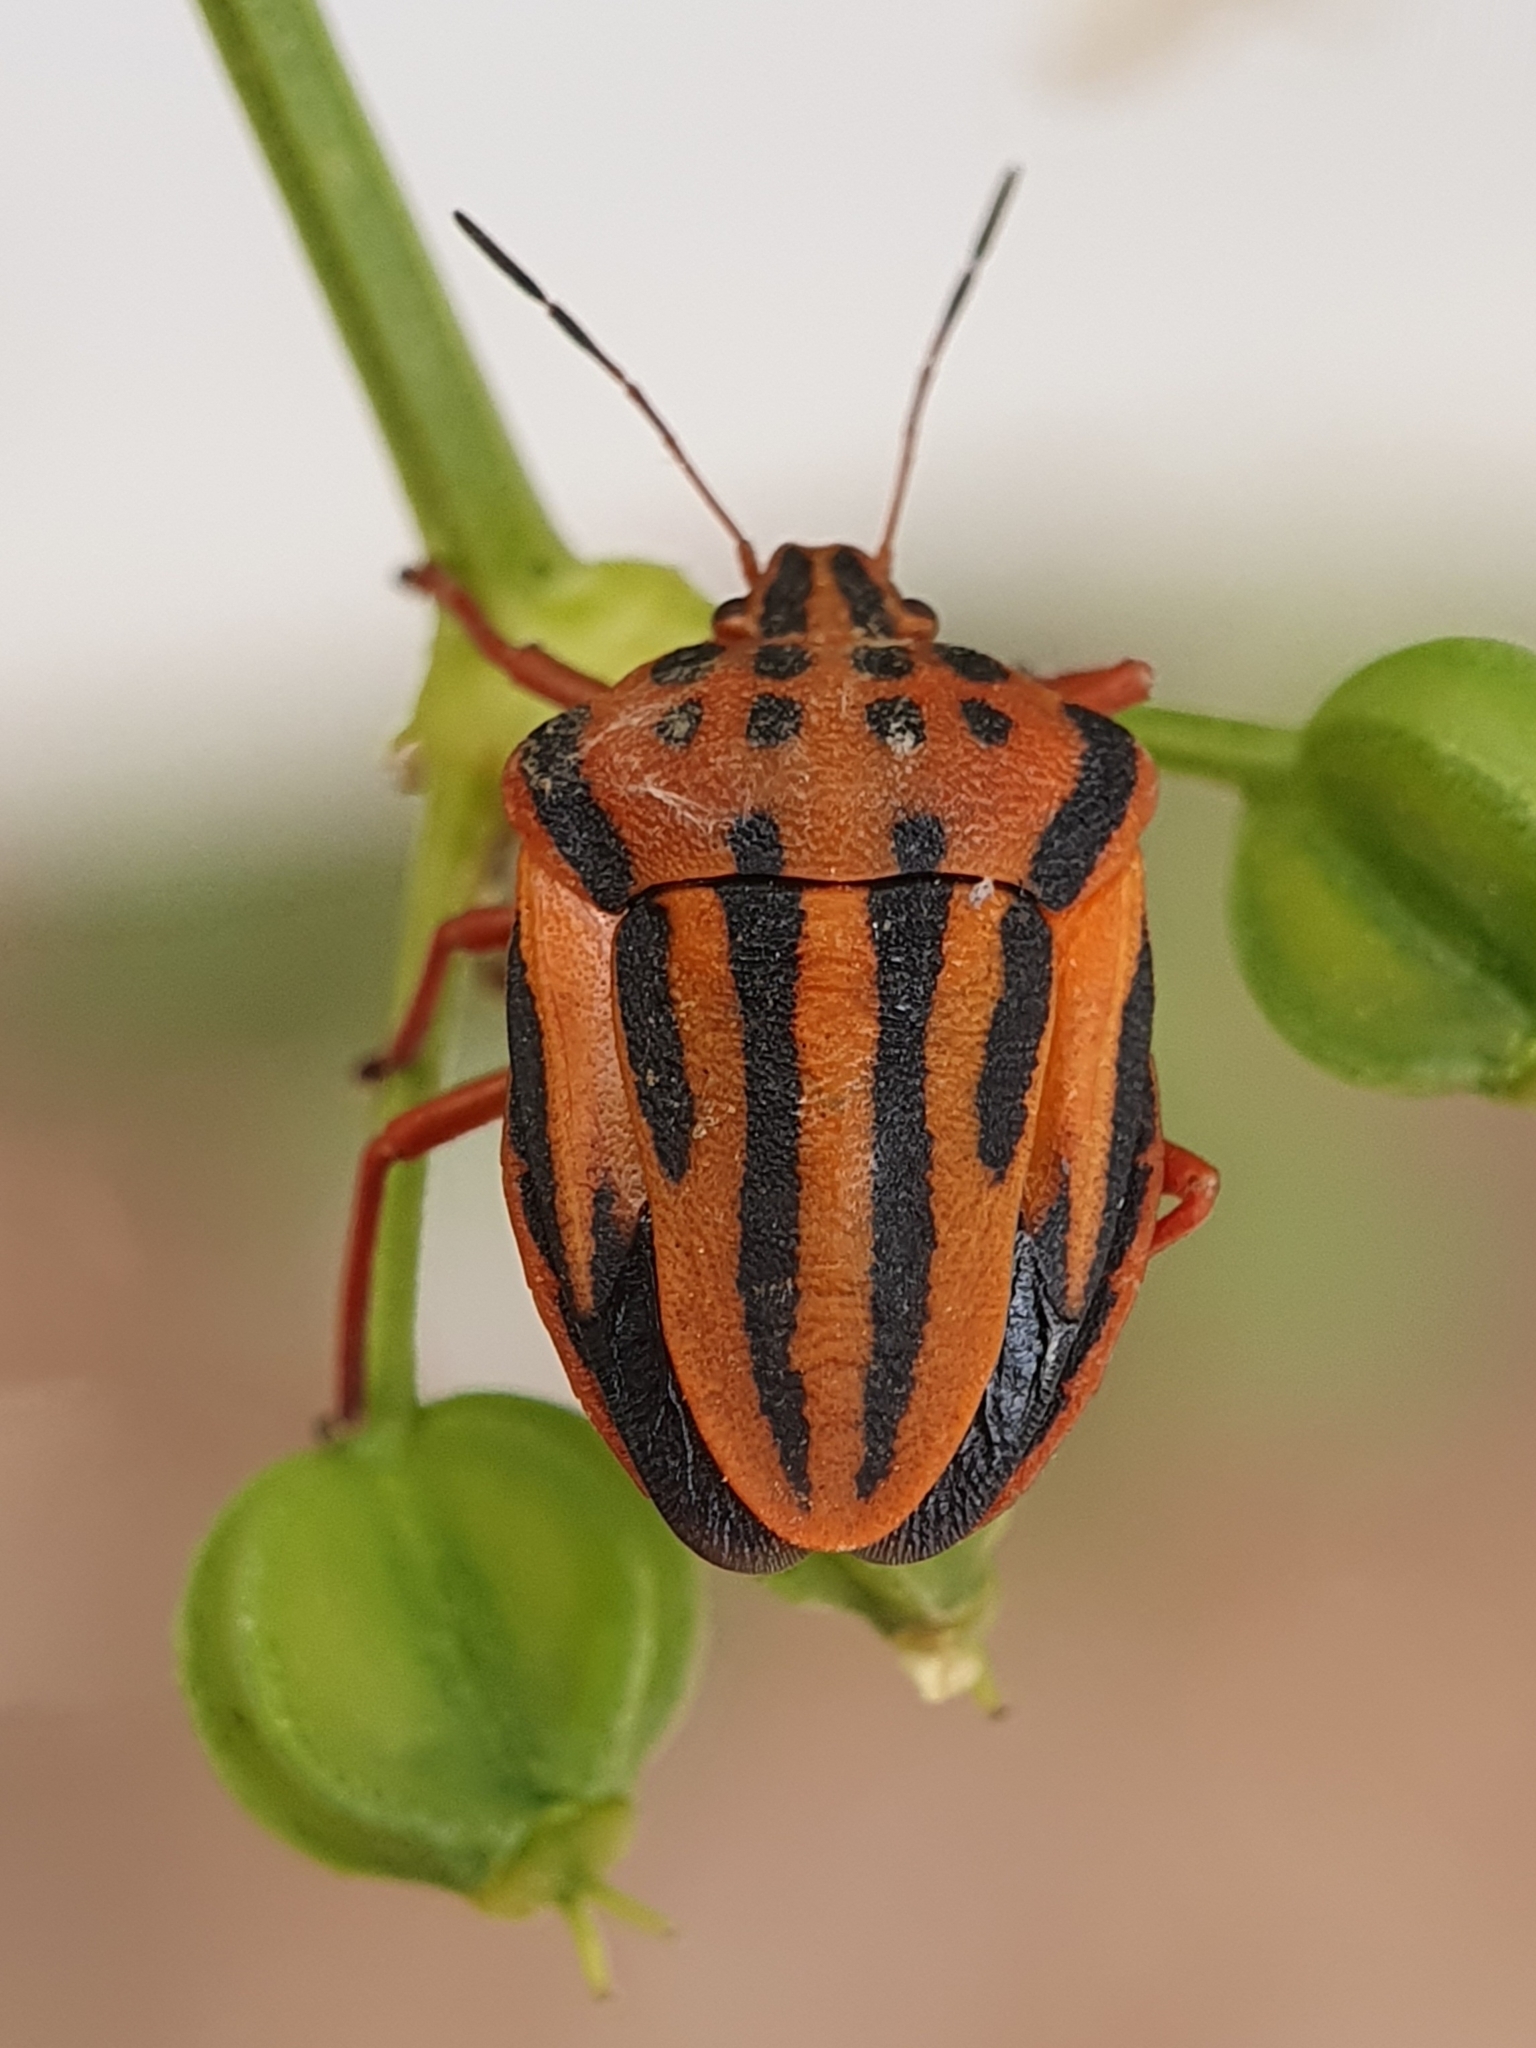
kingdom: Animalia
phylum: Arthropoda
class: Insecta
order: Hemiptera
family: Pentatomidae
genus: Graphosoma
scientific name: Graphosoma semipunctatum
